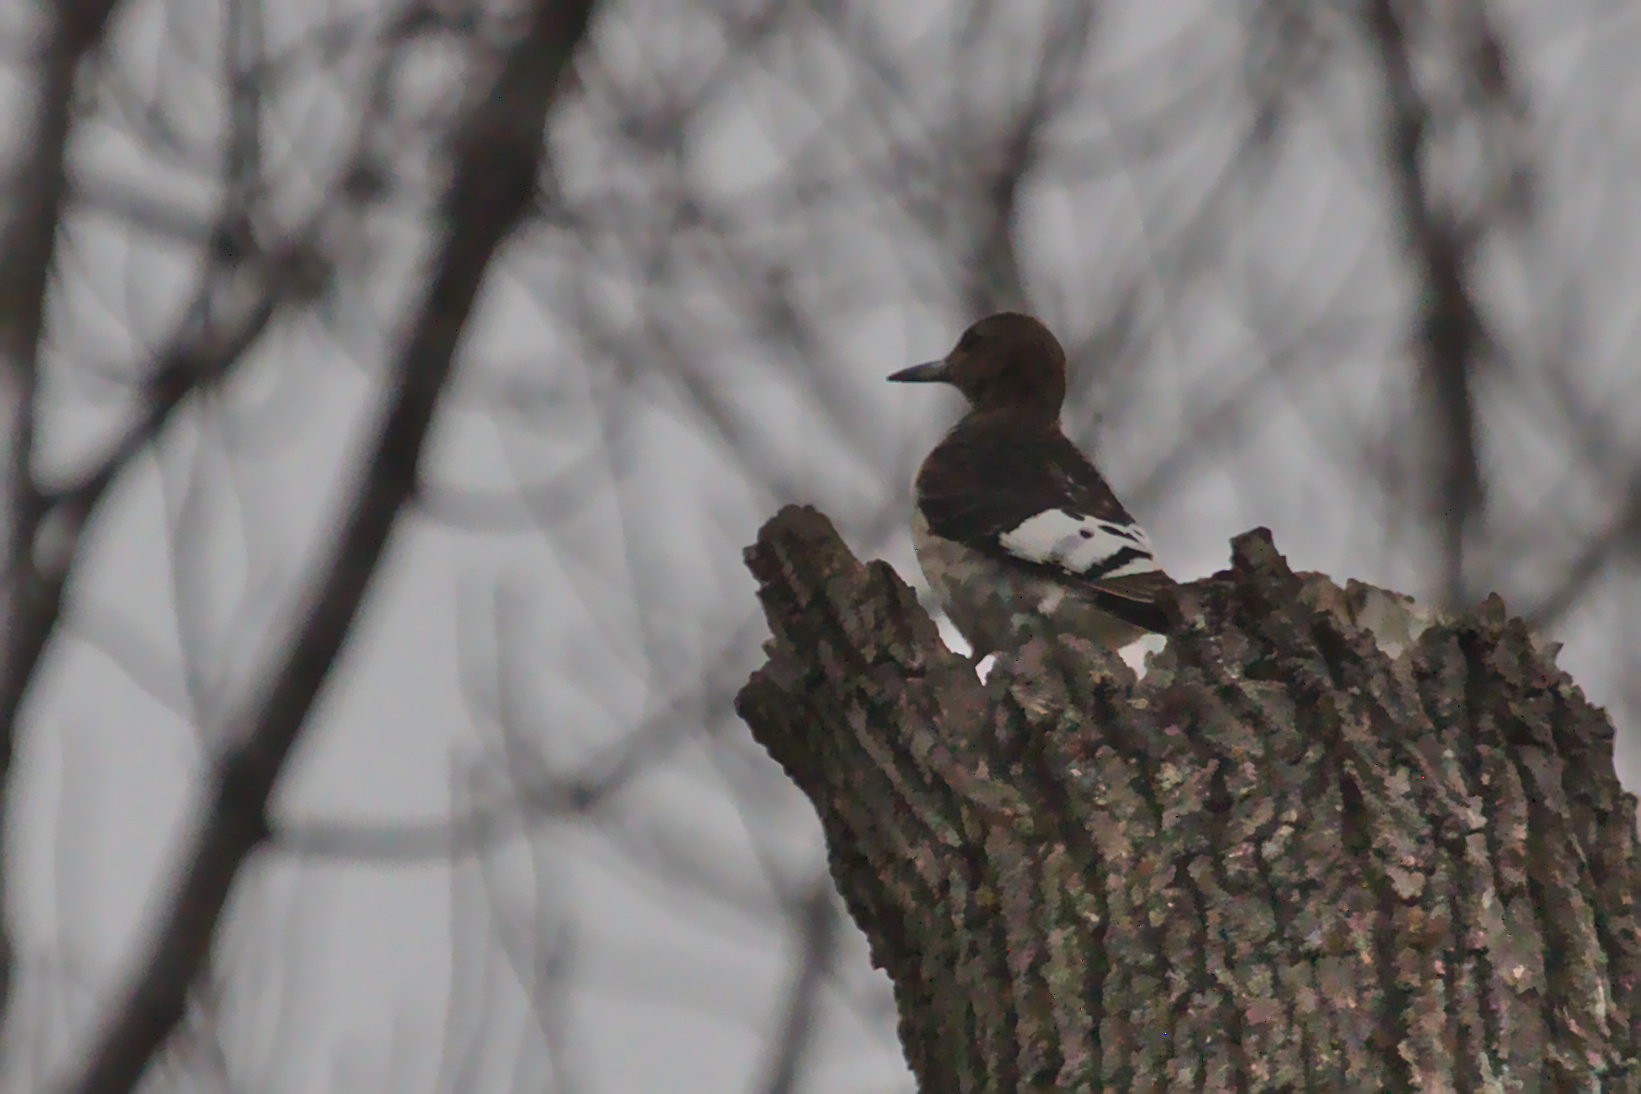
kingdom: Animalia
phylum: Chordata
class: Aves
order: Piciformes
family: Picidae
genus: Melanerpes
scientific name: Melanerpes erythrocephalus
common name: Red-headed woodpecker
